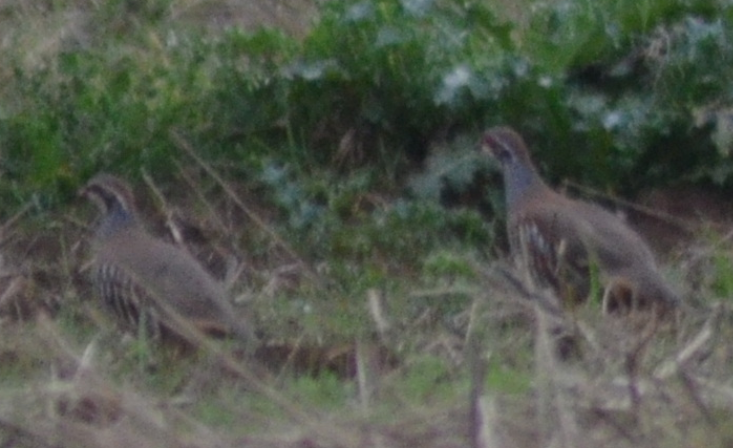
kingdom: Animalia
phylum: Chordata
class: Aves
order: Galliformes
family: Phasianidae
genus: Alectoris
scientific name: Alectoris rufa
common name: Red-legged partridge
